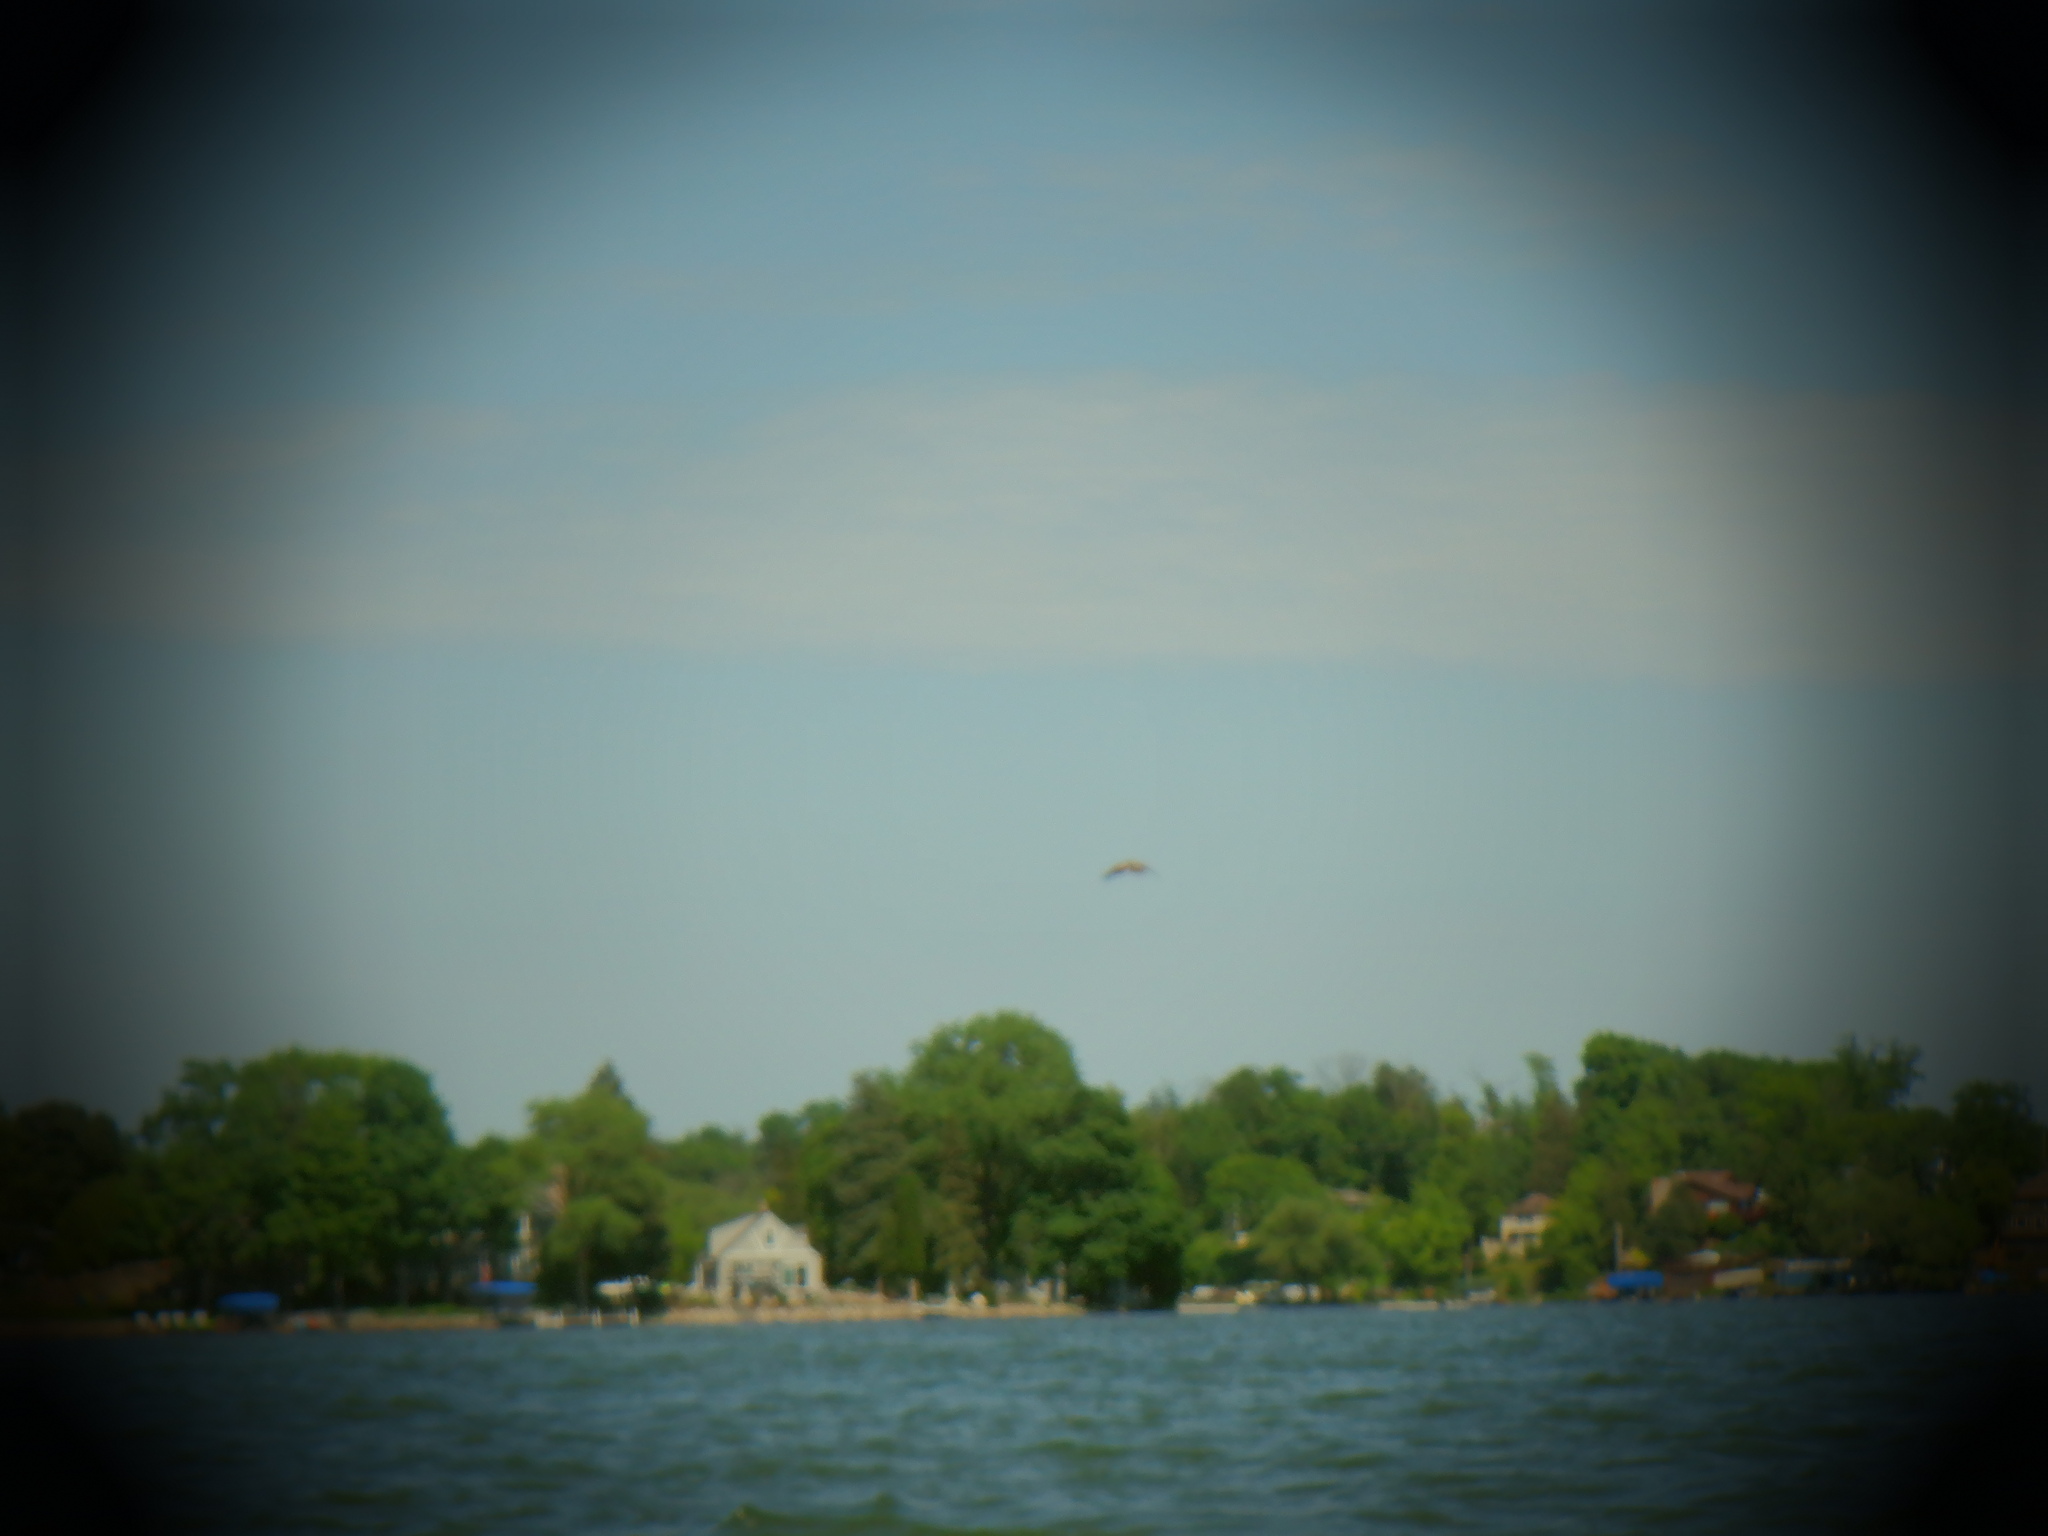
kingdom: Animalia
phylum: Chordata
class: Aves
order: Accipitriformes
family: Accipitridae
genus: Haliaeetus
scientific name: Haliaeetus leucocephalus
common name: Bald eagle
